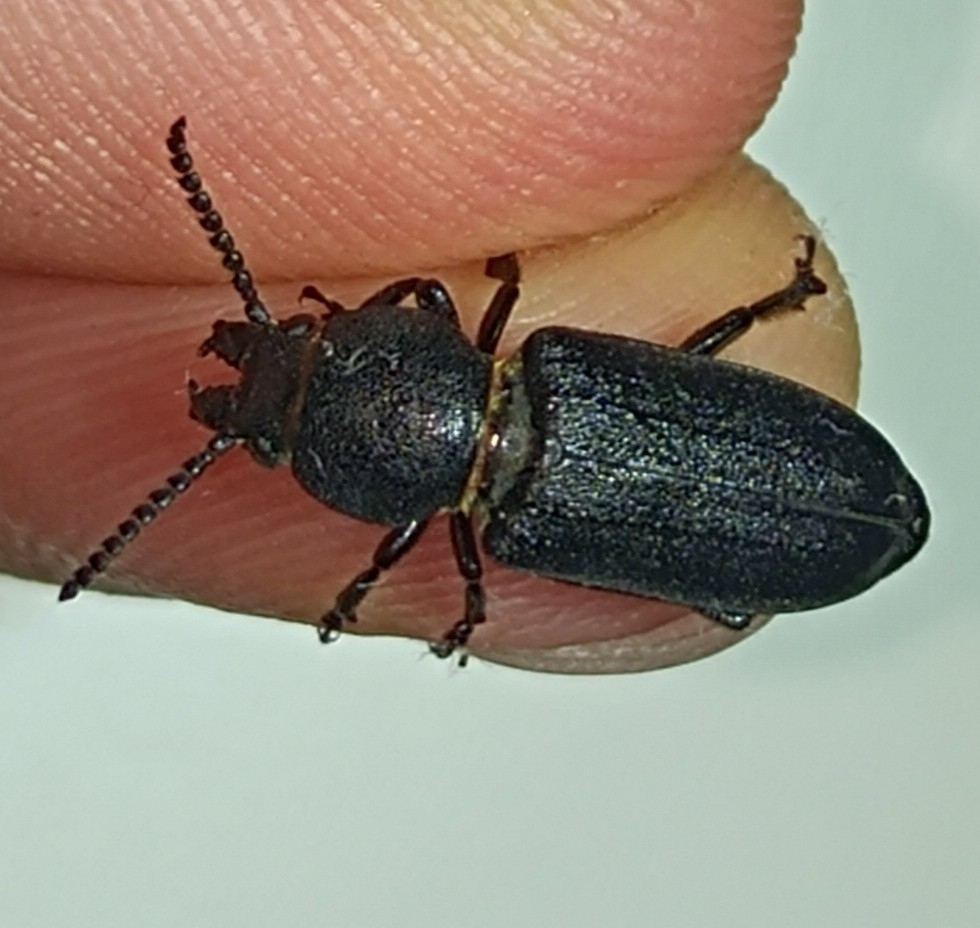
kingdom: Animalia
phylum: Arthropoda
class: Insecta
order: Coleoptera
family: Cerambycidae
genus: Spondylis
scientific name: Spondylis buprestoides
